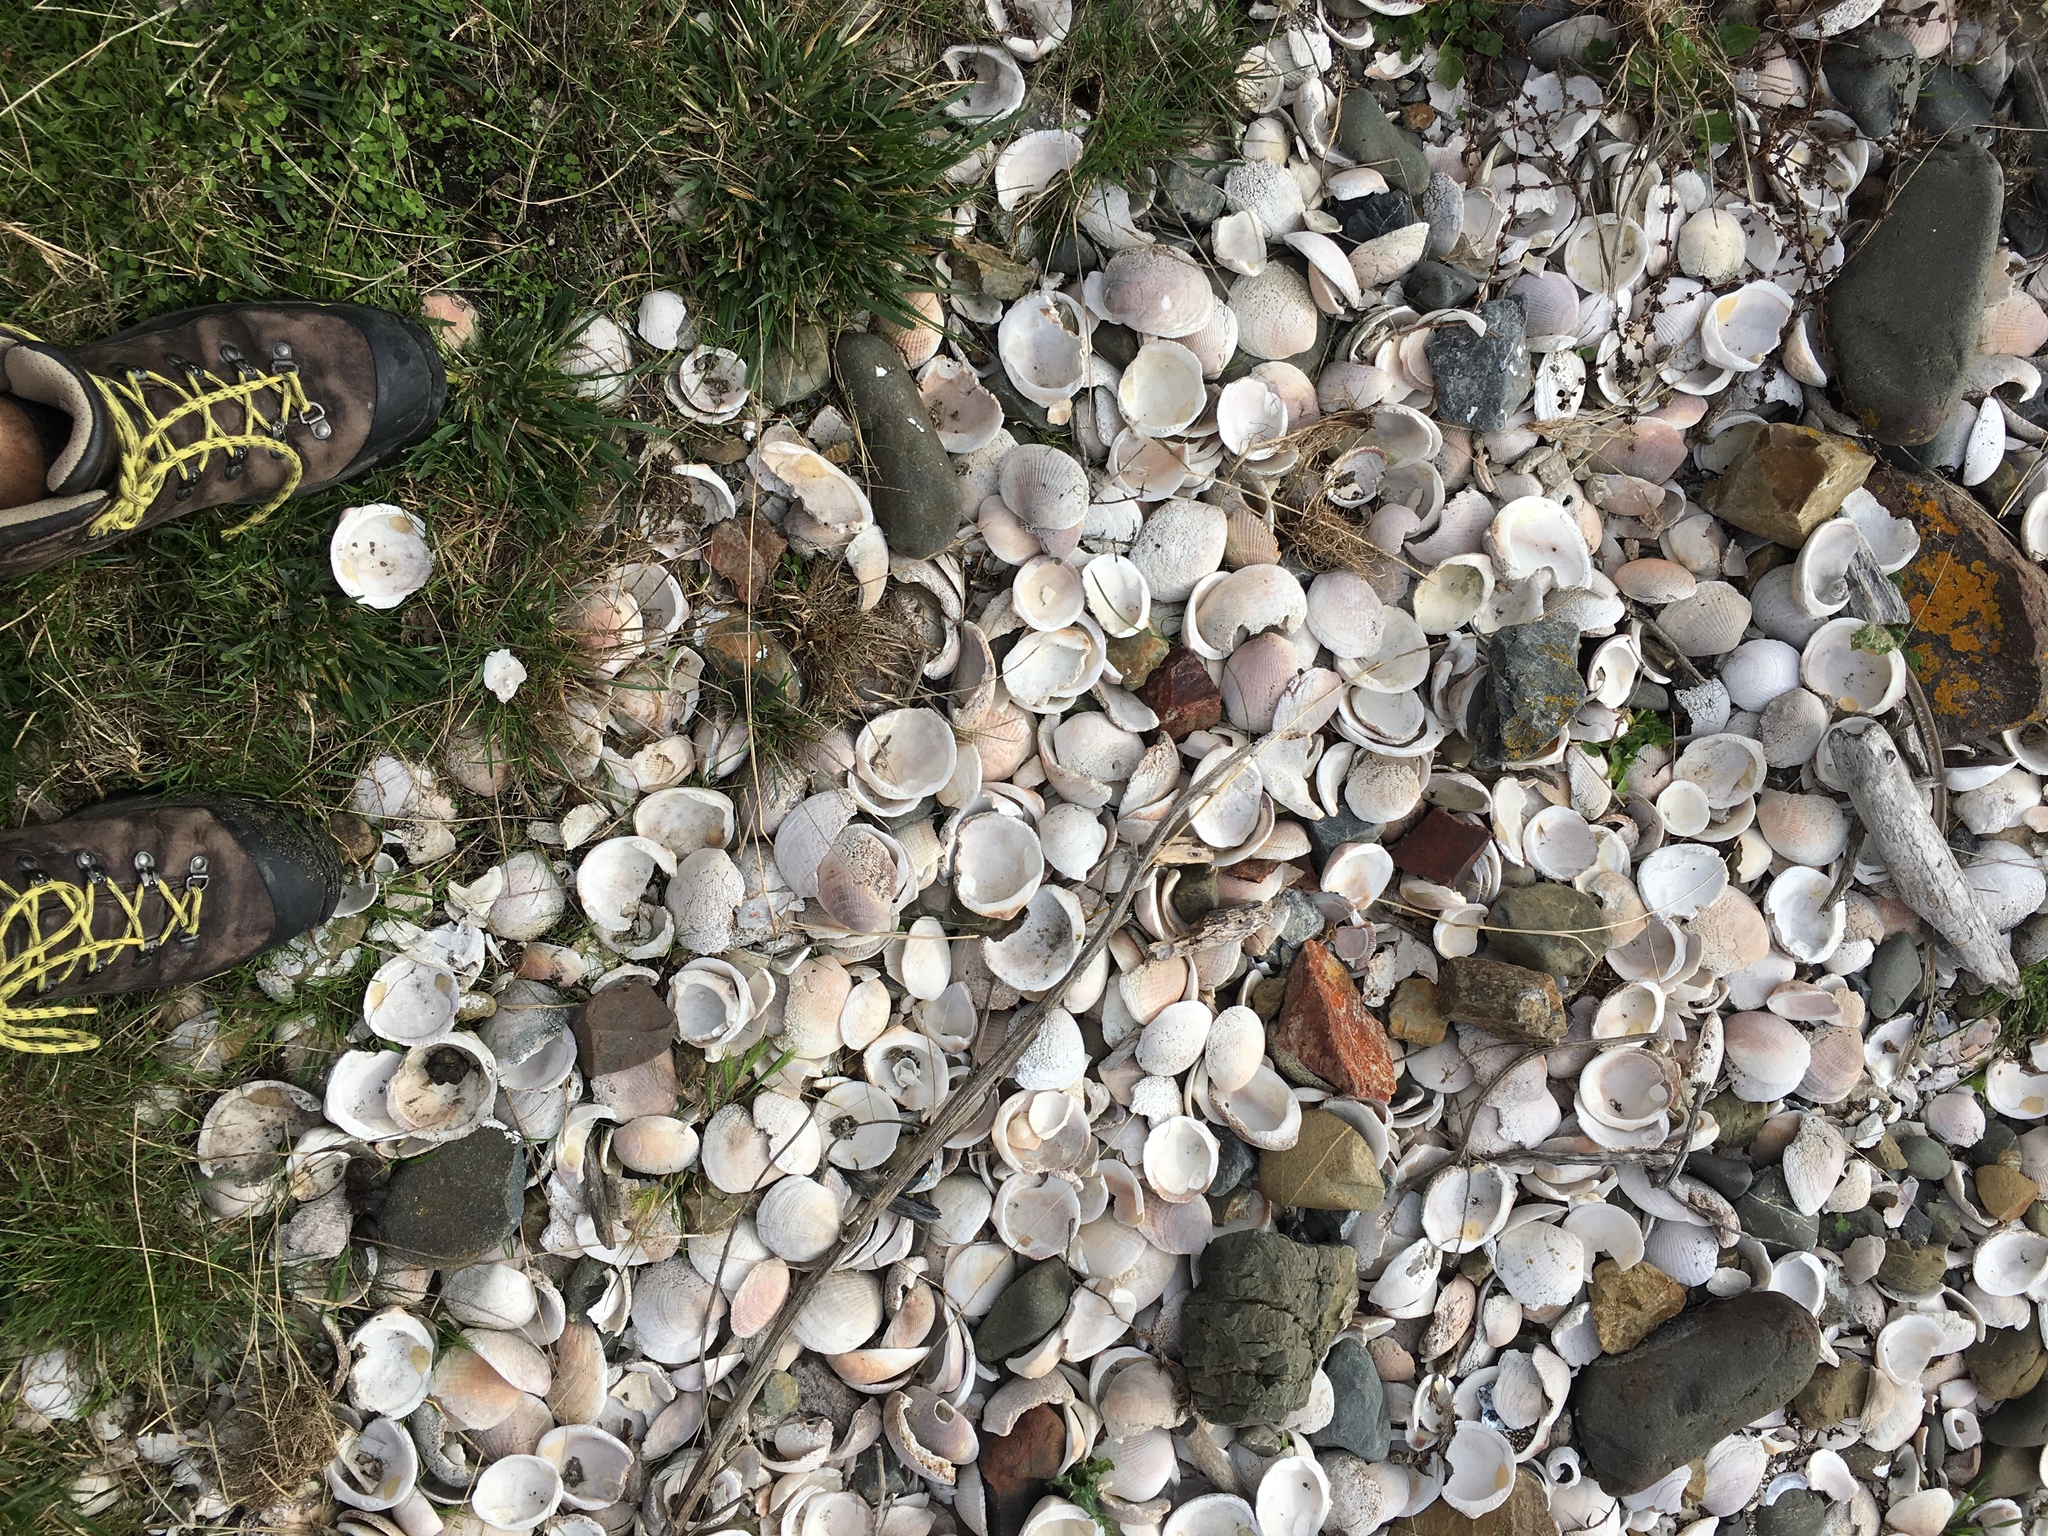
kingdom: Animalia
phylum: Mollusca
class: Bivalvia
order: Venerida
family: Veneridae
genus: Austrovenus
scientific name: Austrovenus stutchburyi
